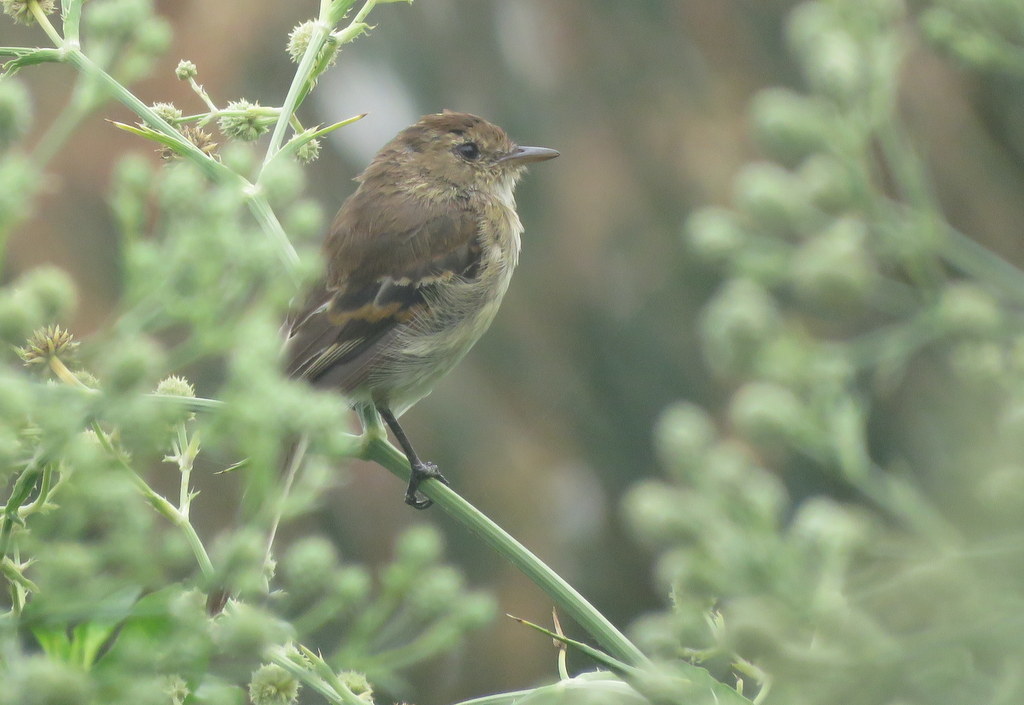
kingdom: Animalia
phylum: Chordata
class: Aves
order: Passeriformes
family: Tyrannidae
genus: Myiophobus
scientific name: Myiophobus fasciatus
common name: Bran-colored flycatcher
